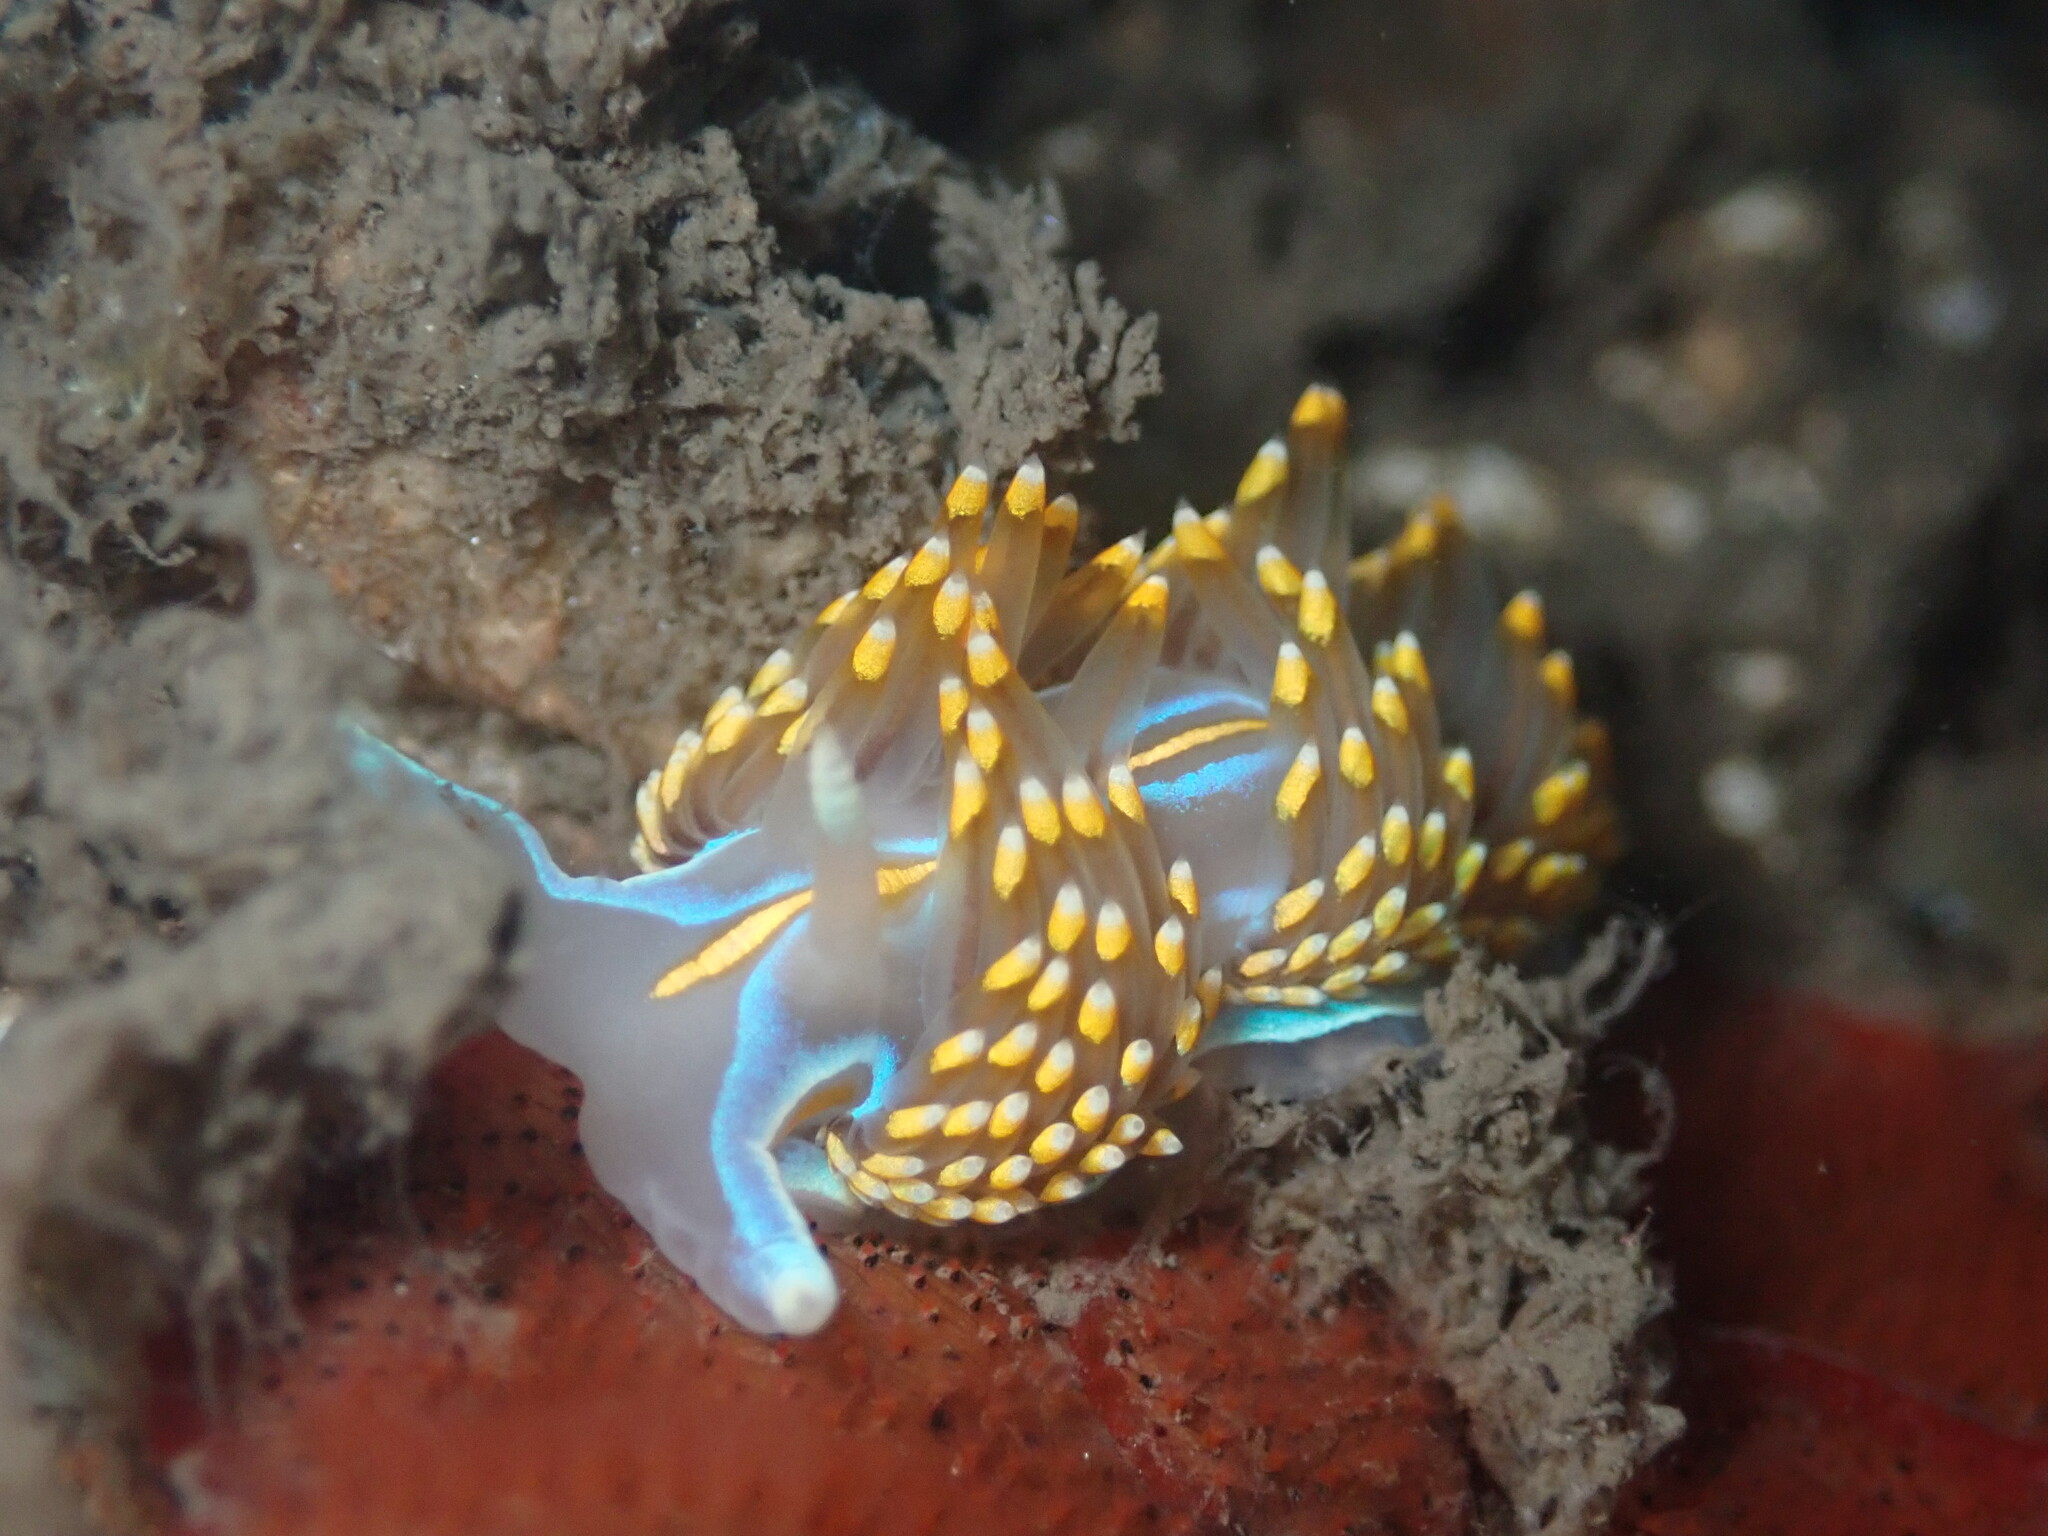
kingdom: Animalia
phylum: Mollusca
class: Gastropoda
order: Nudibranchia
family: Myrrhinidae
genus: Hermissenda
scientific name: Hermissenda opalescens
